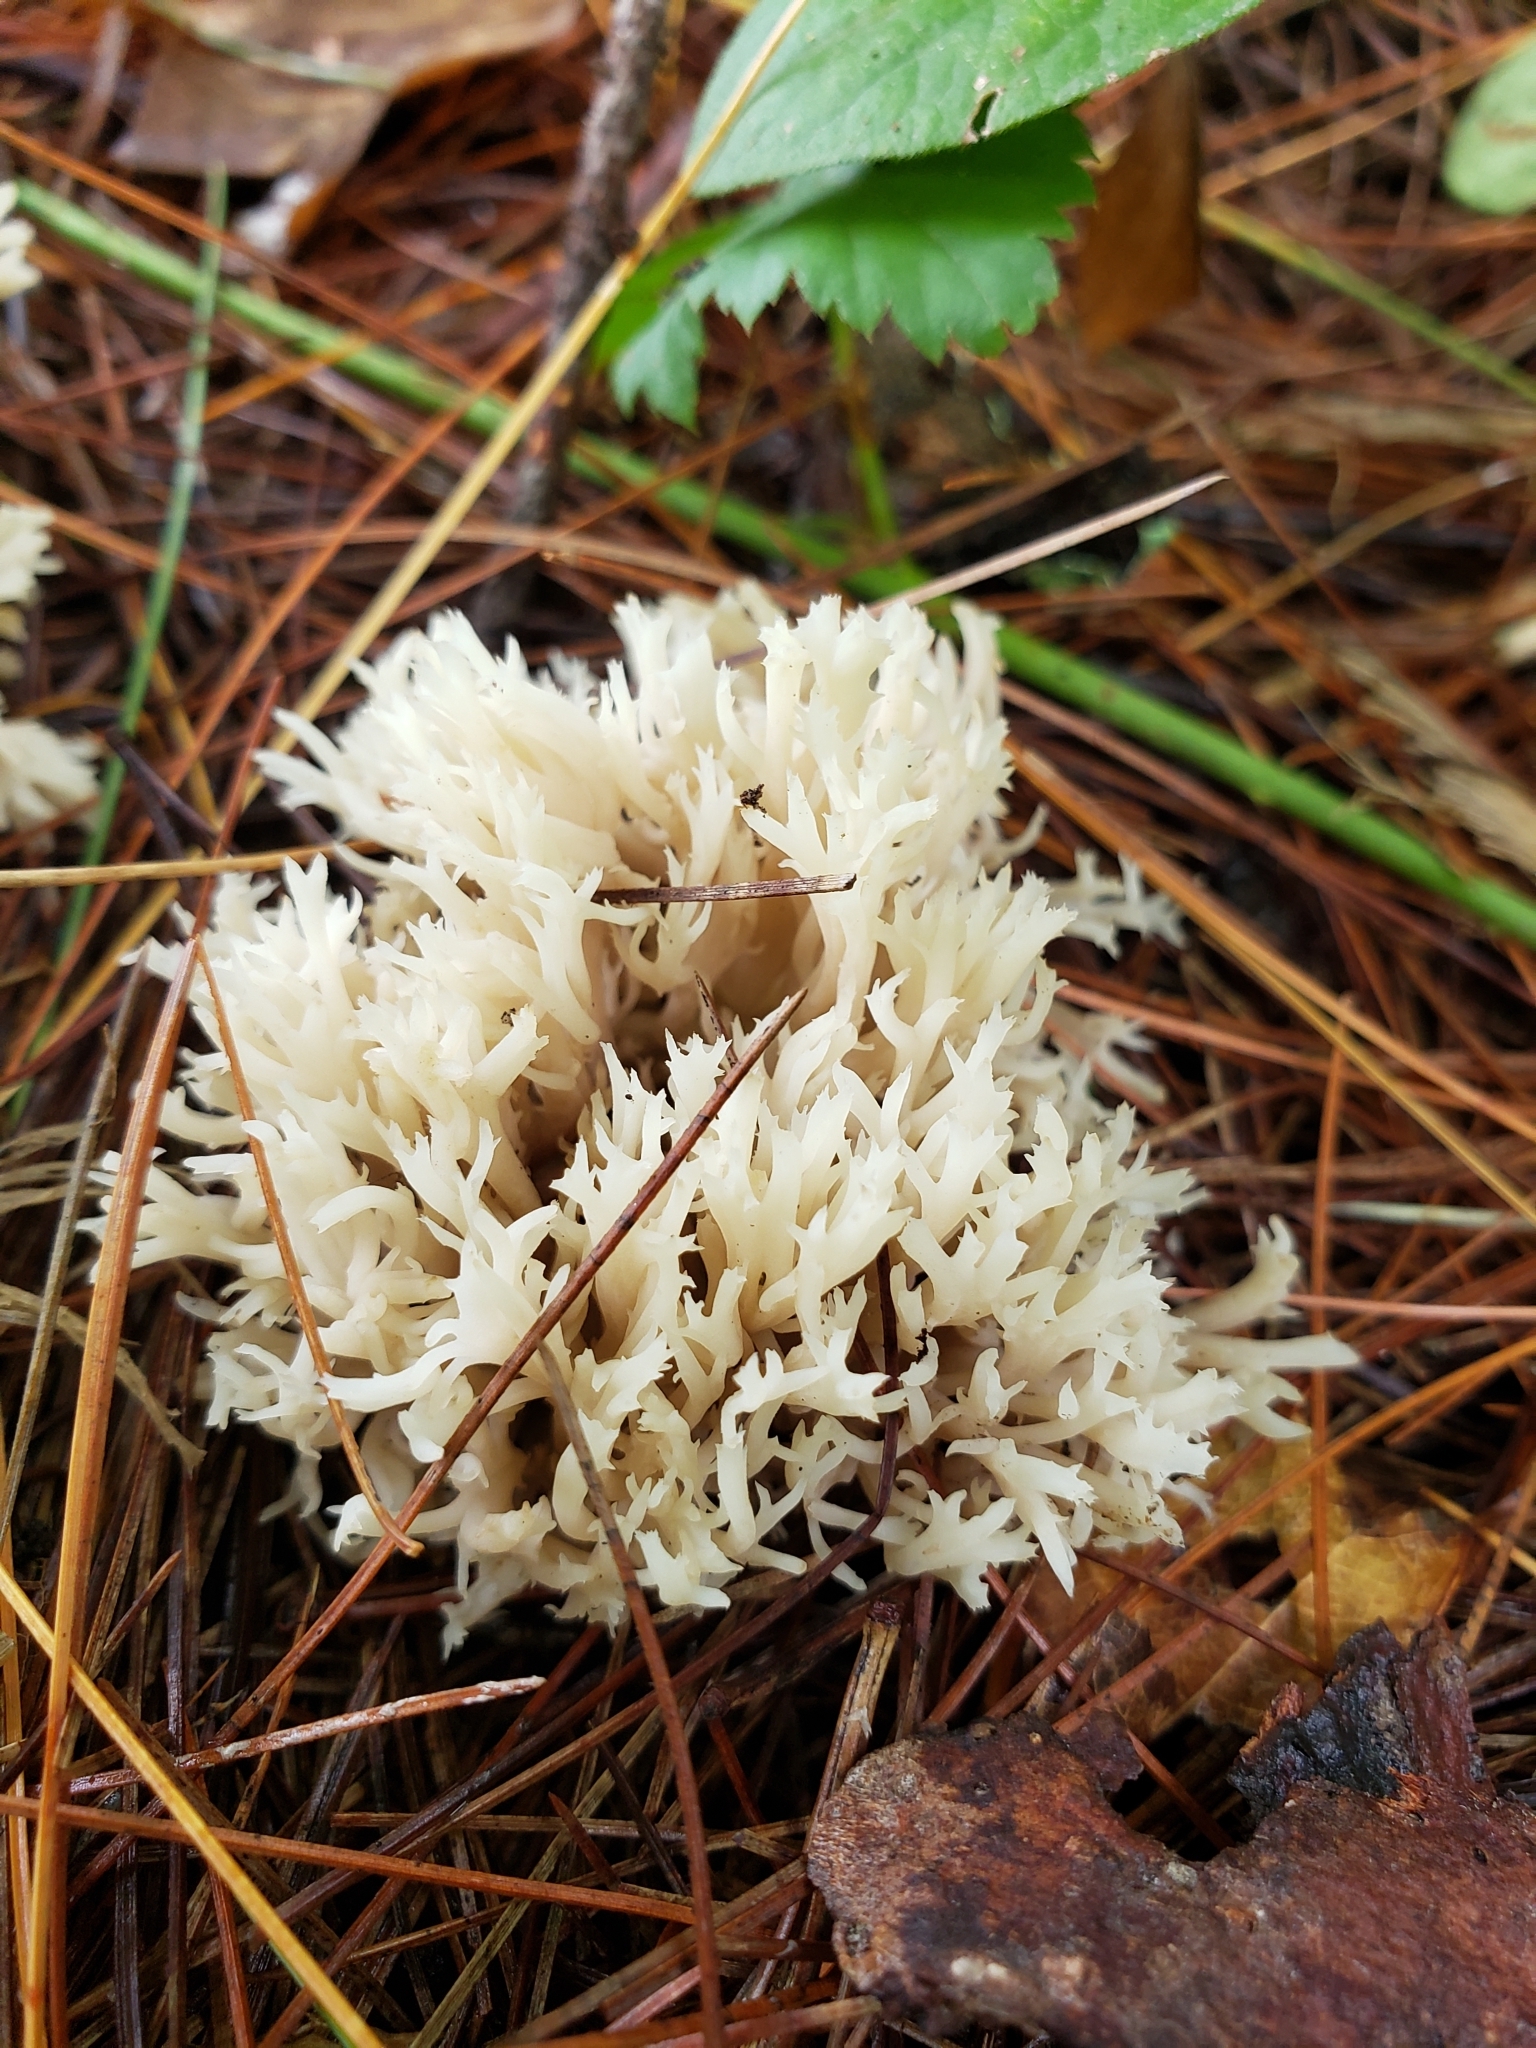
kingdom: Fungi
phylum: Basidiomycota
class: Agaricomycetes
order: Cantharellales
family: Hydnaceae
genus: Clavulina
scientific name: Clavulina coralloides
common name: Crested coral
